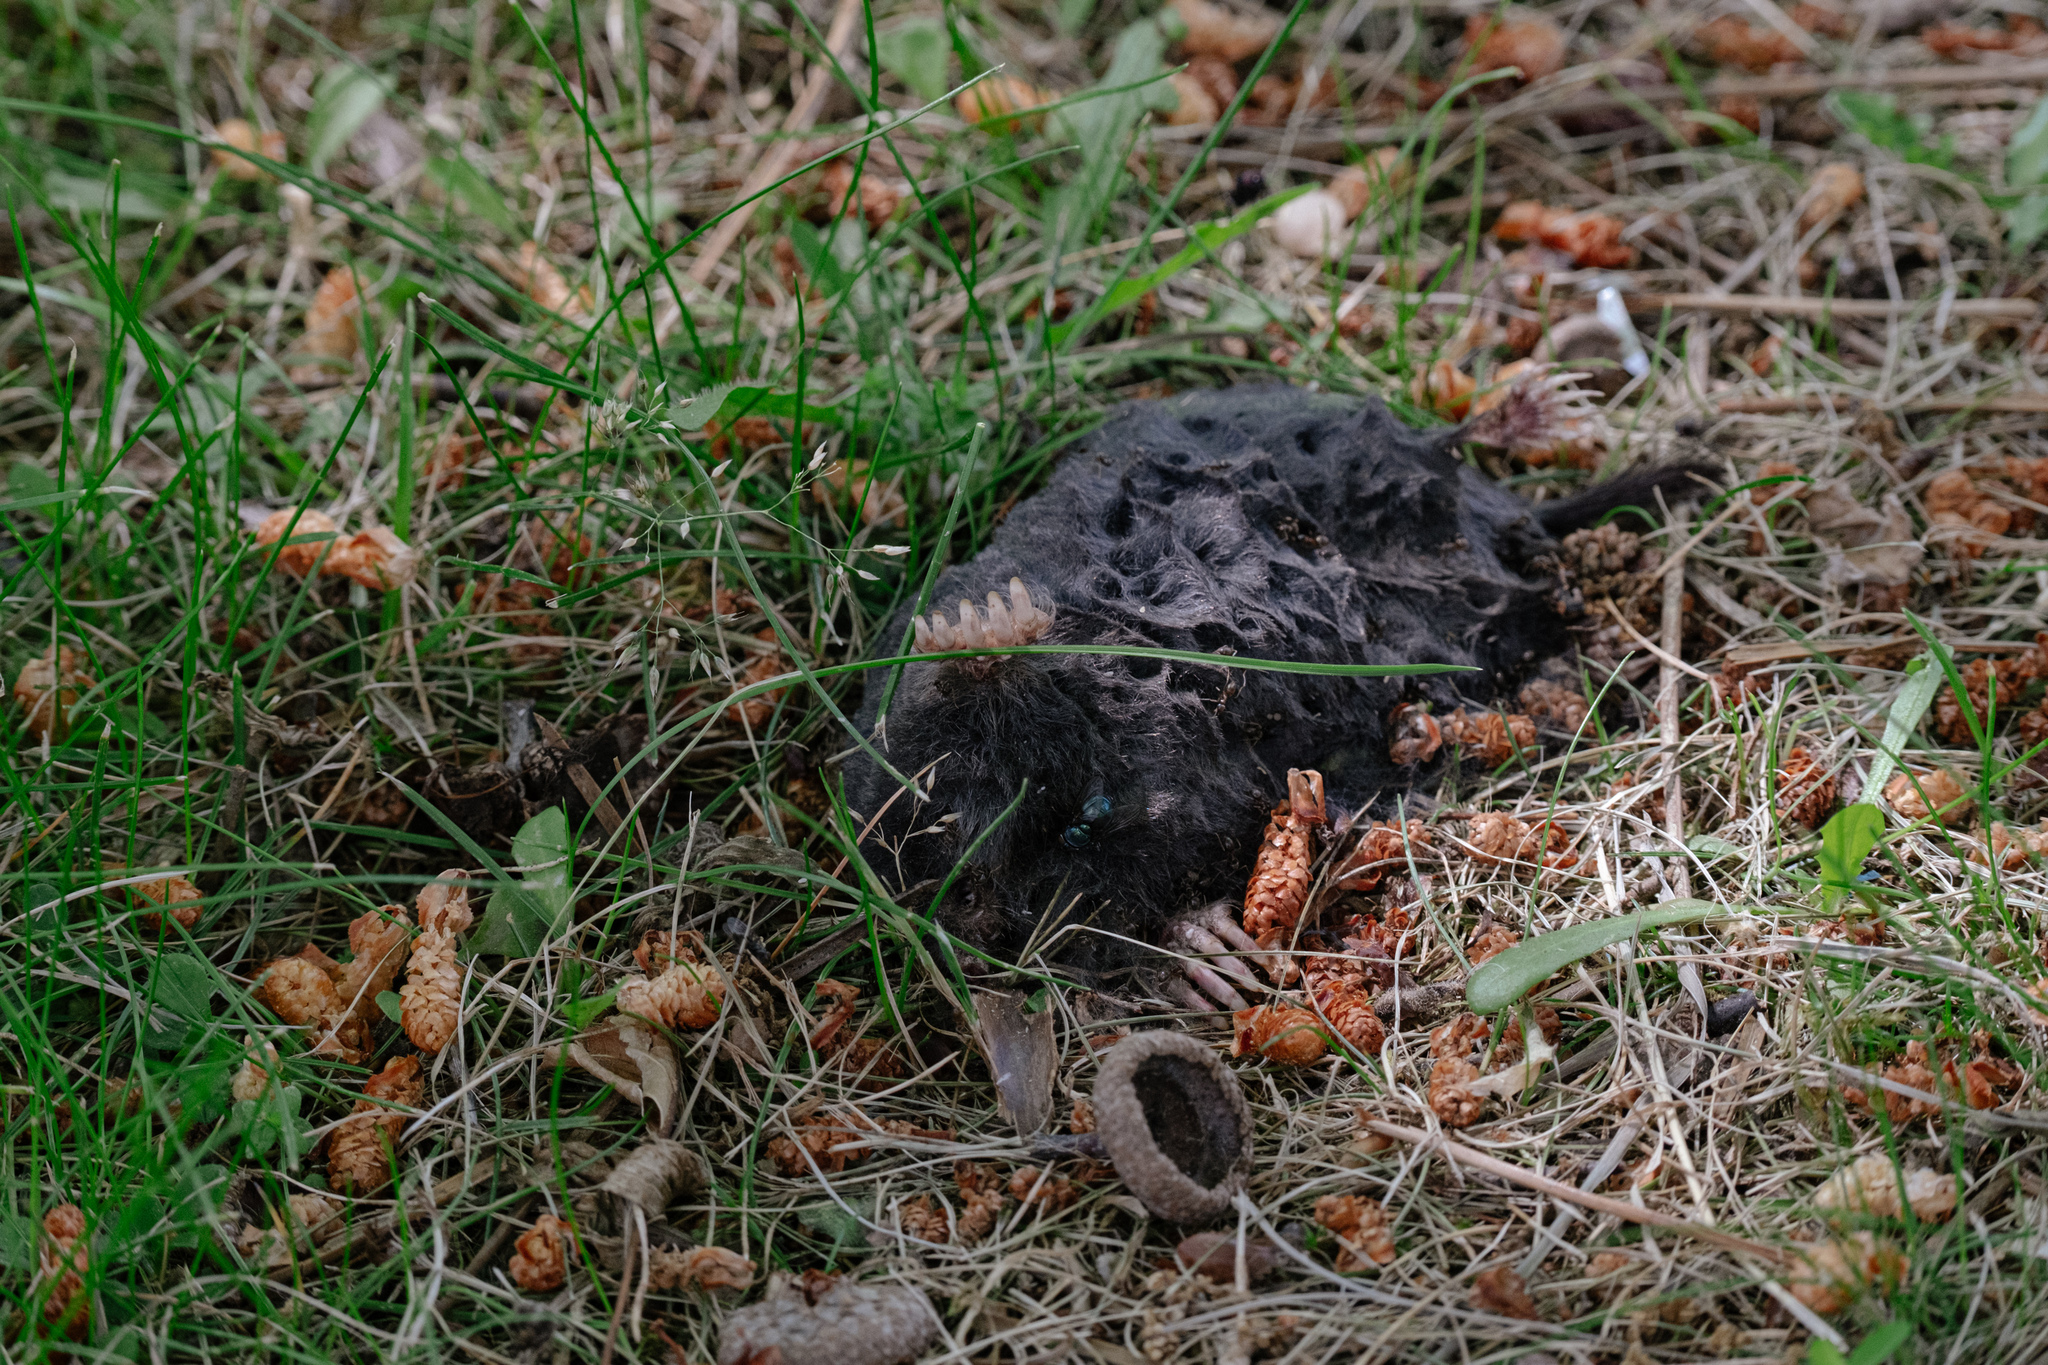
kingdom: Animalia
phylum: Chordata
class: Mammalia
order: Soricomorpha
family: Talpidae
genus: Talpa
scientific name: Talpa occidentalis
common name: Iberian mole
